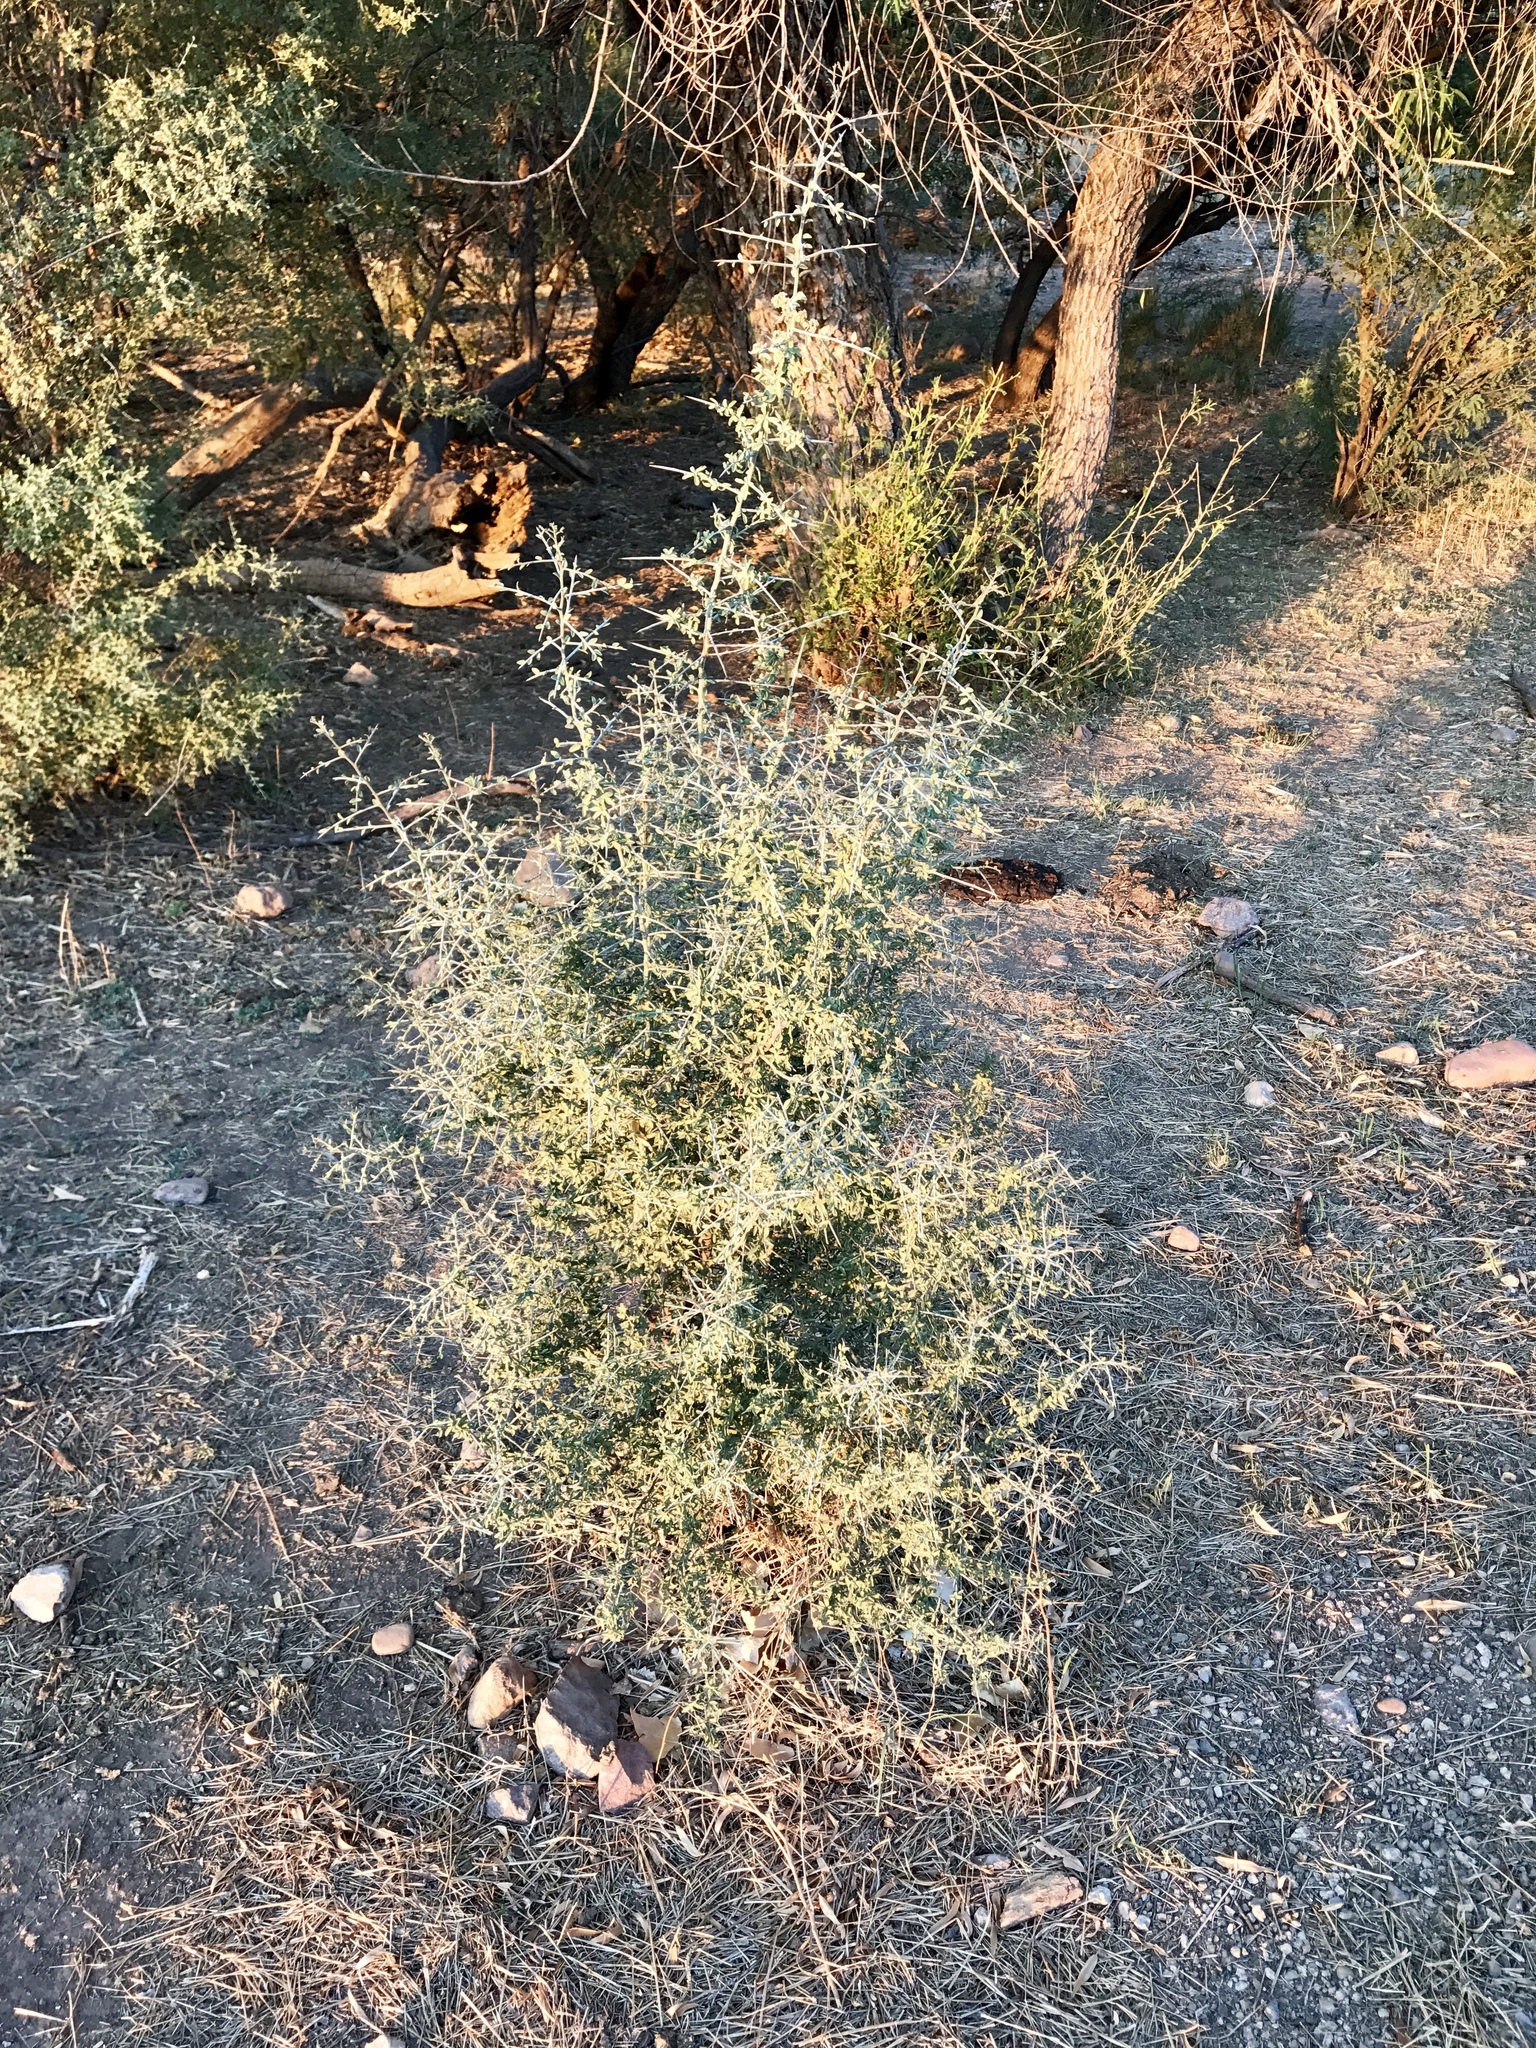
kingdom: Plantae
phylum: Tracheophyta
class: Magnoliopsida
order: Rosales
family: Rhamnaceae
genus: Sarcomphalus
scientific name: Sarcomphalus obtusifolius
